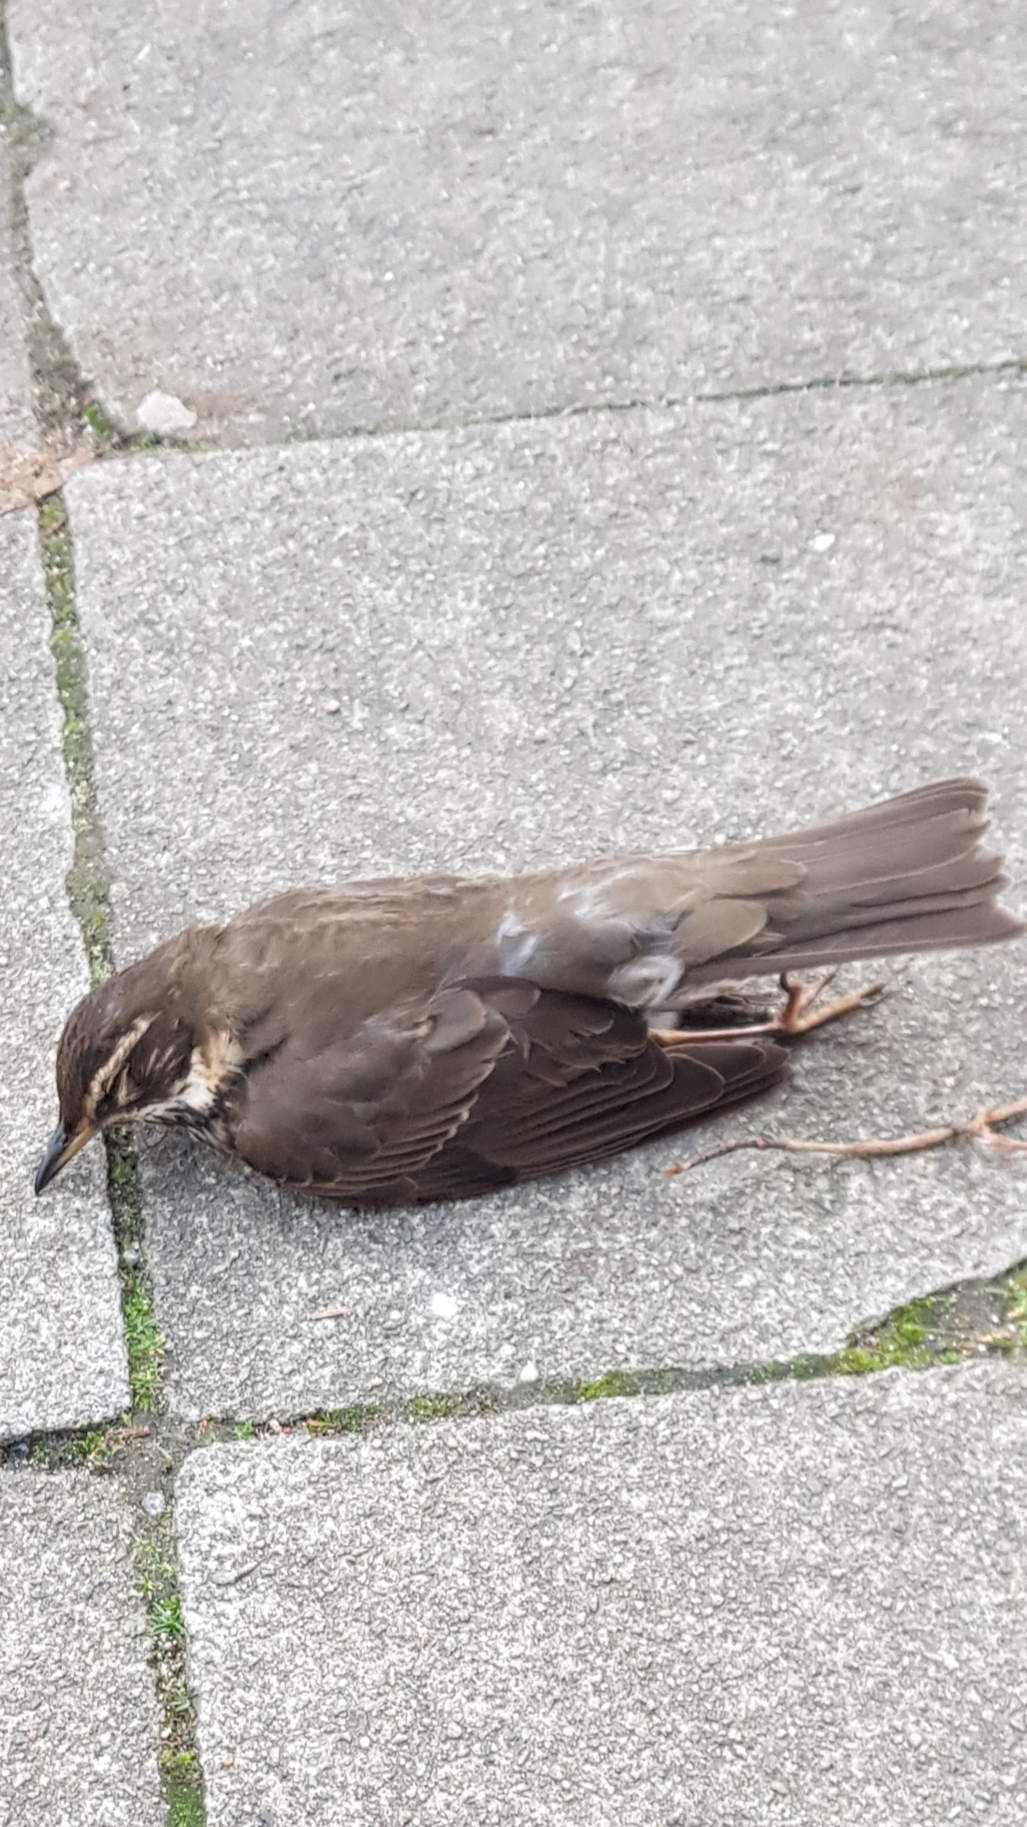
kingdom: Animalia
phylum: Chordata
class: Aves
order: Passeriformes
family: Turdidae
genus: Turdus
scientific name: Turdus iliacus
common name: Redwing
